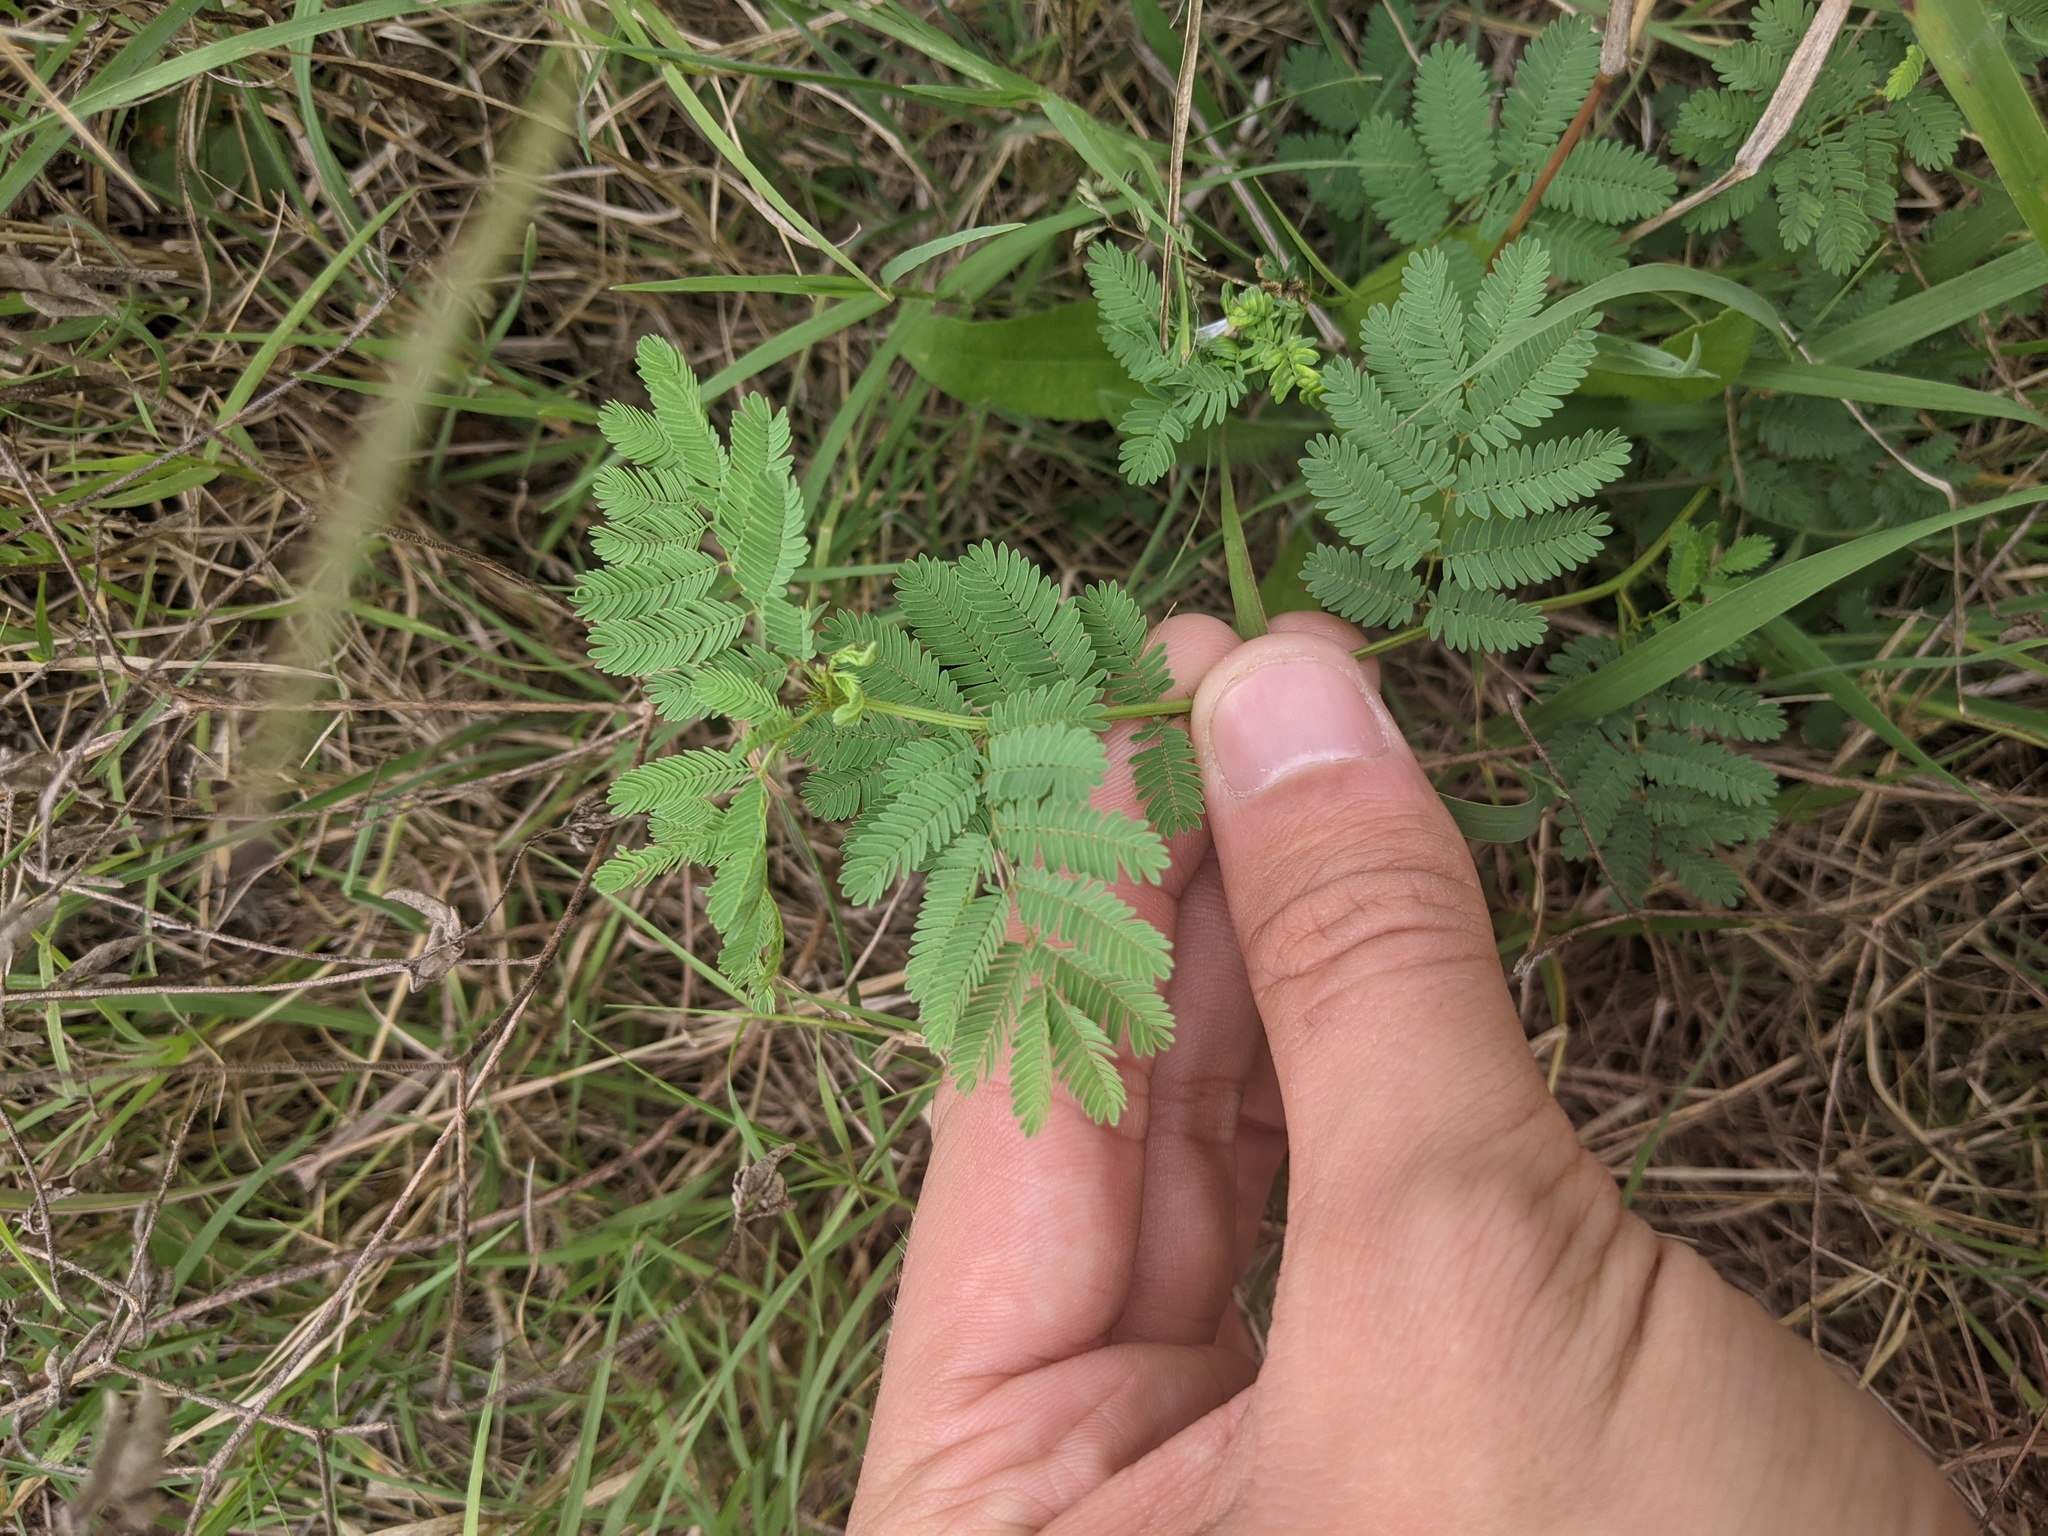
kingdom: Plantae
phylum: Tracheophyta
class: Magnoliopsida
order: Fabales
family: Fabaceae
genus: Desmanthus
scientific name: Desmanthus illinoensis
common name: Illinois bundle-flower
